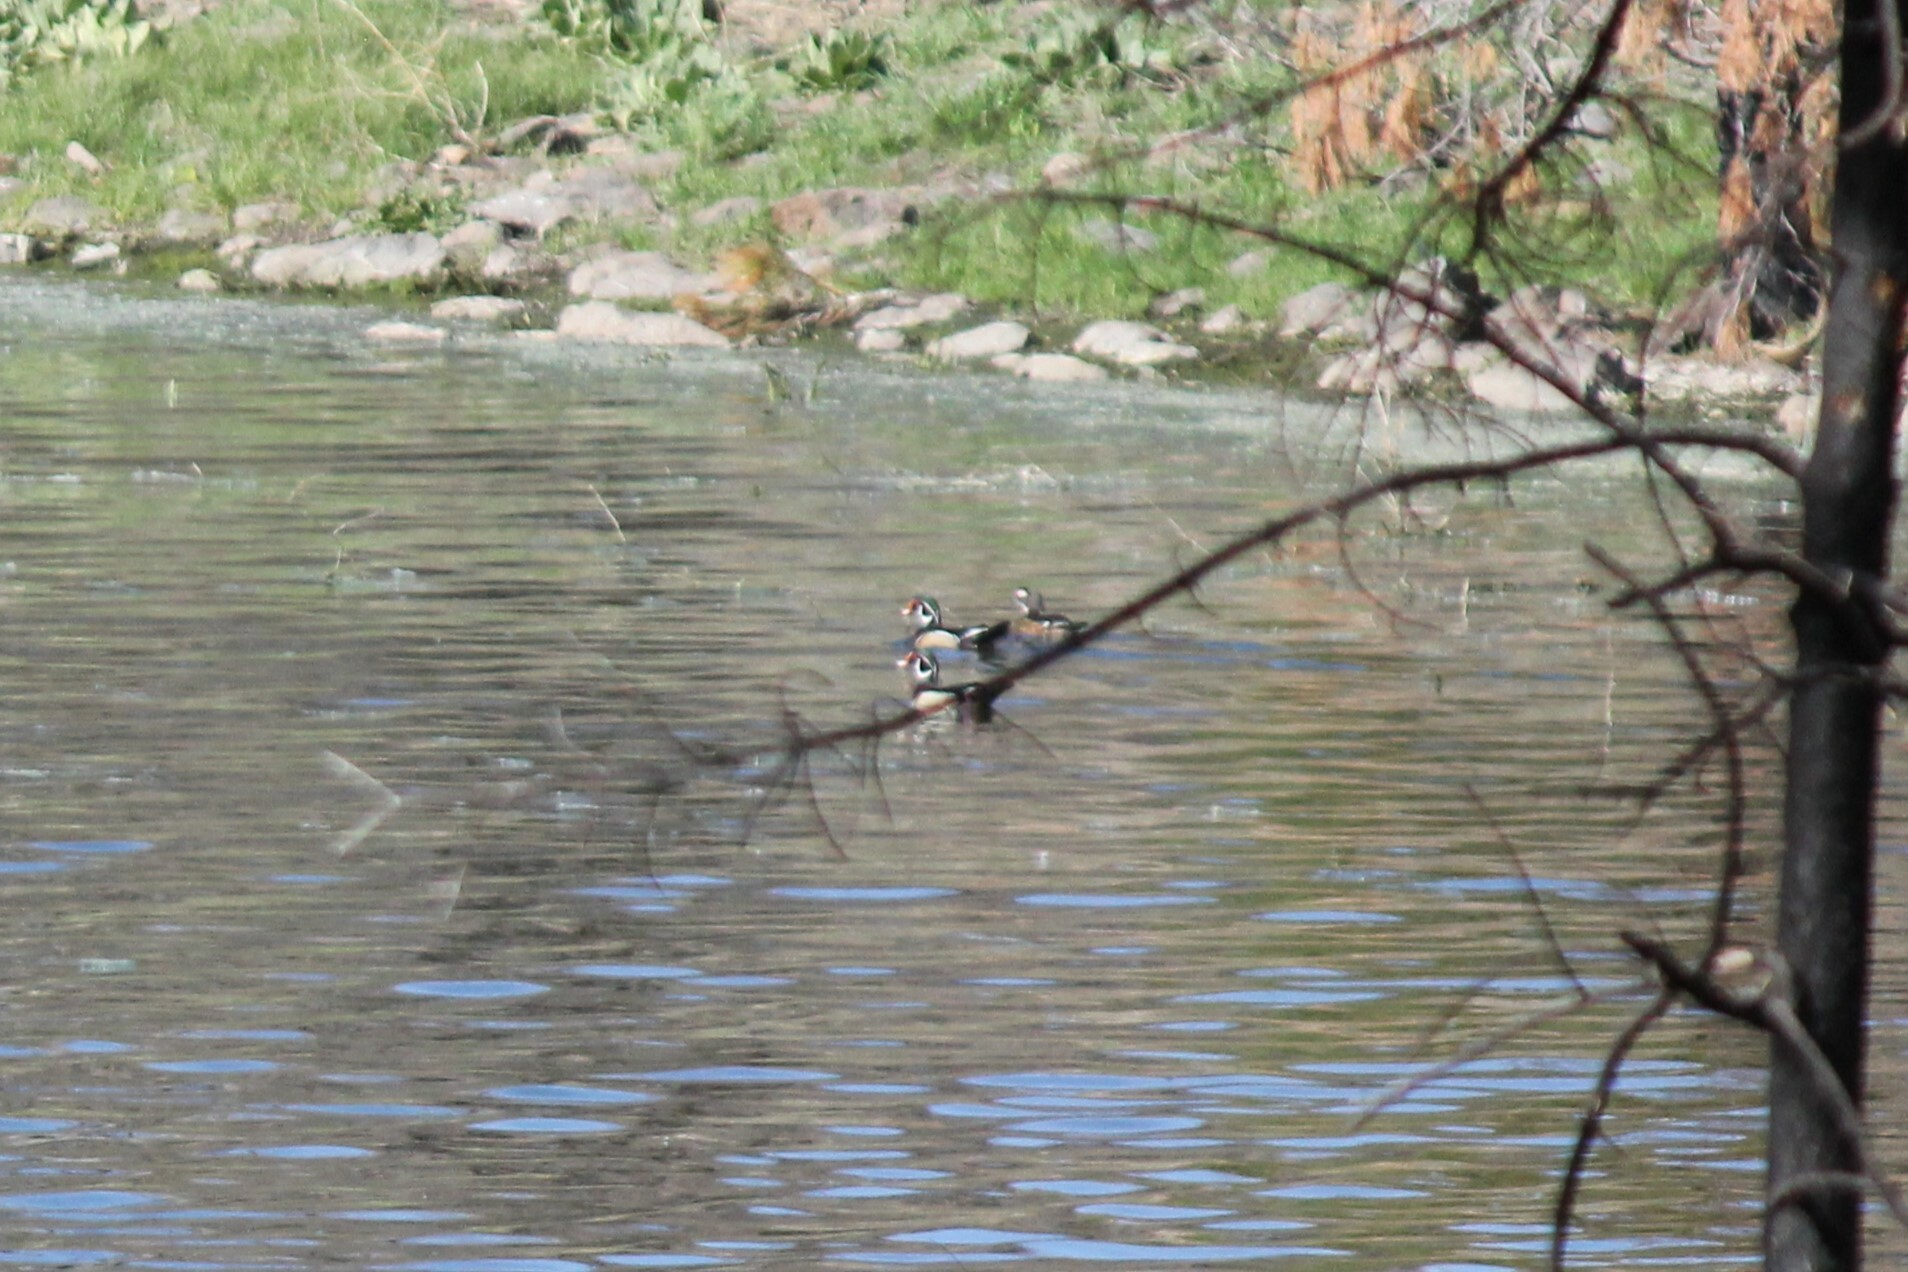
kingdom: Animalia
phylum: Chordata
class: Aves
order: Anseriformes
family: Anatidae
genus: Aix
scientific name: Aix sponsa
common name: Wood duck
